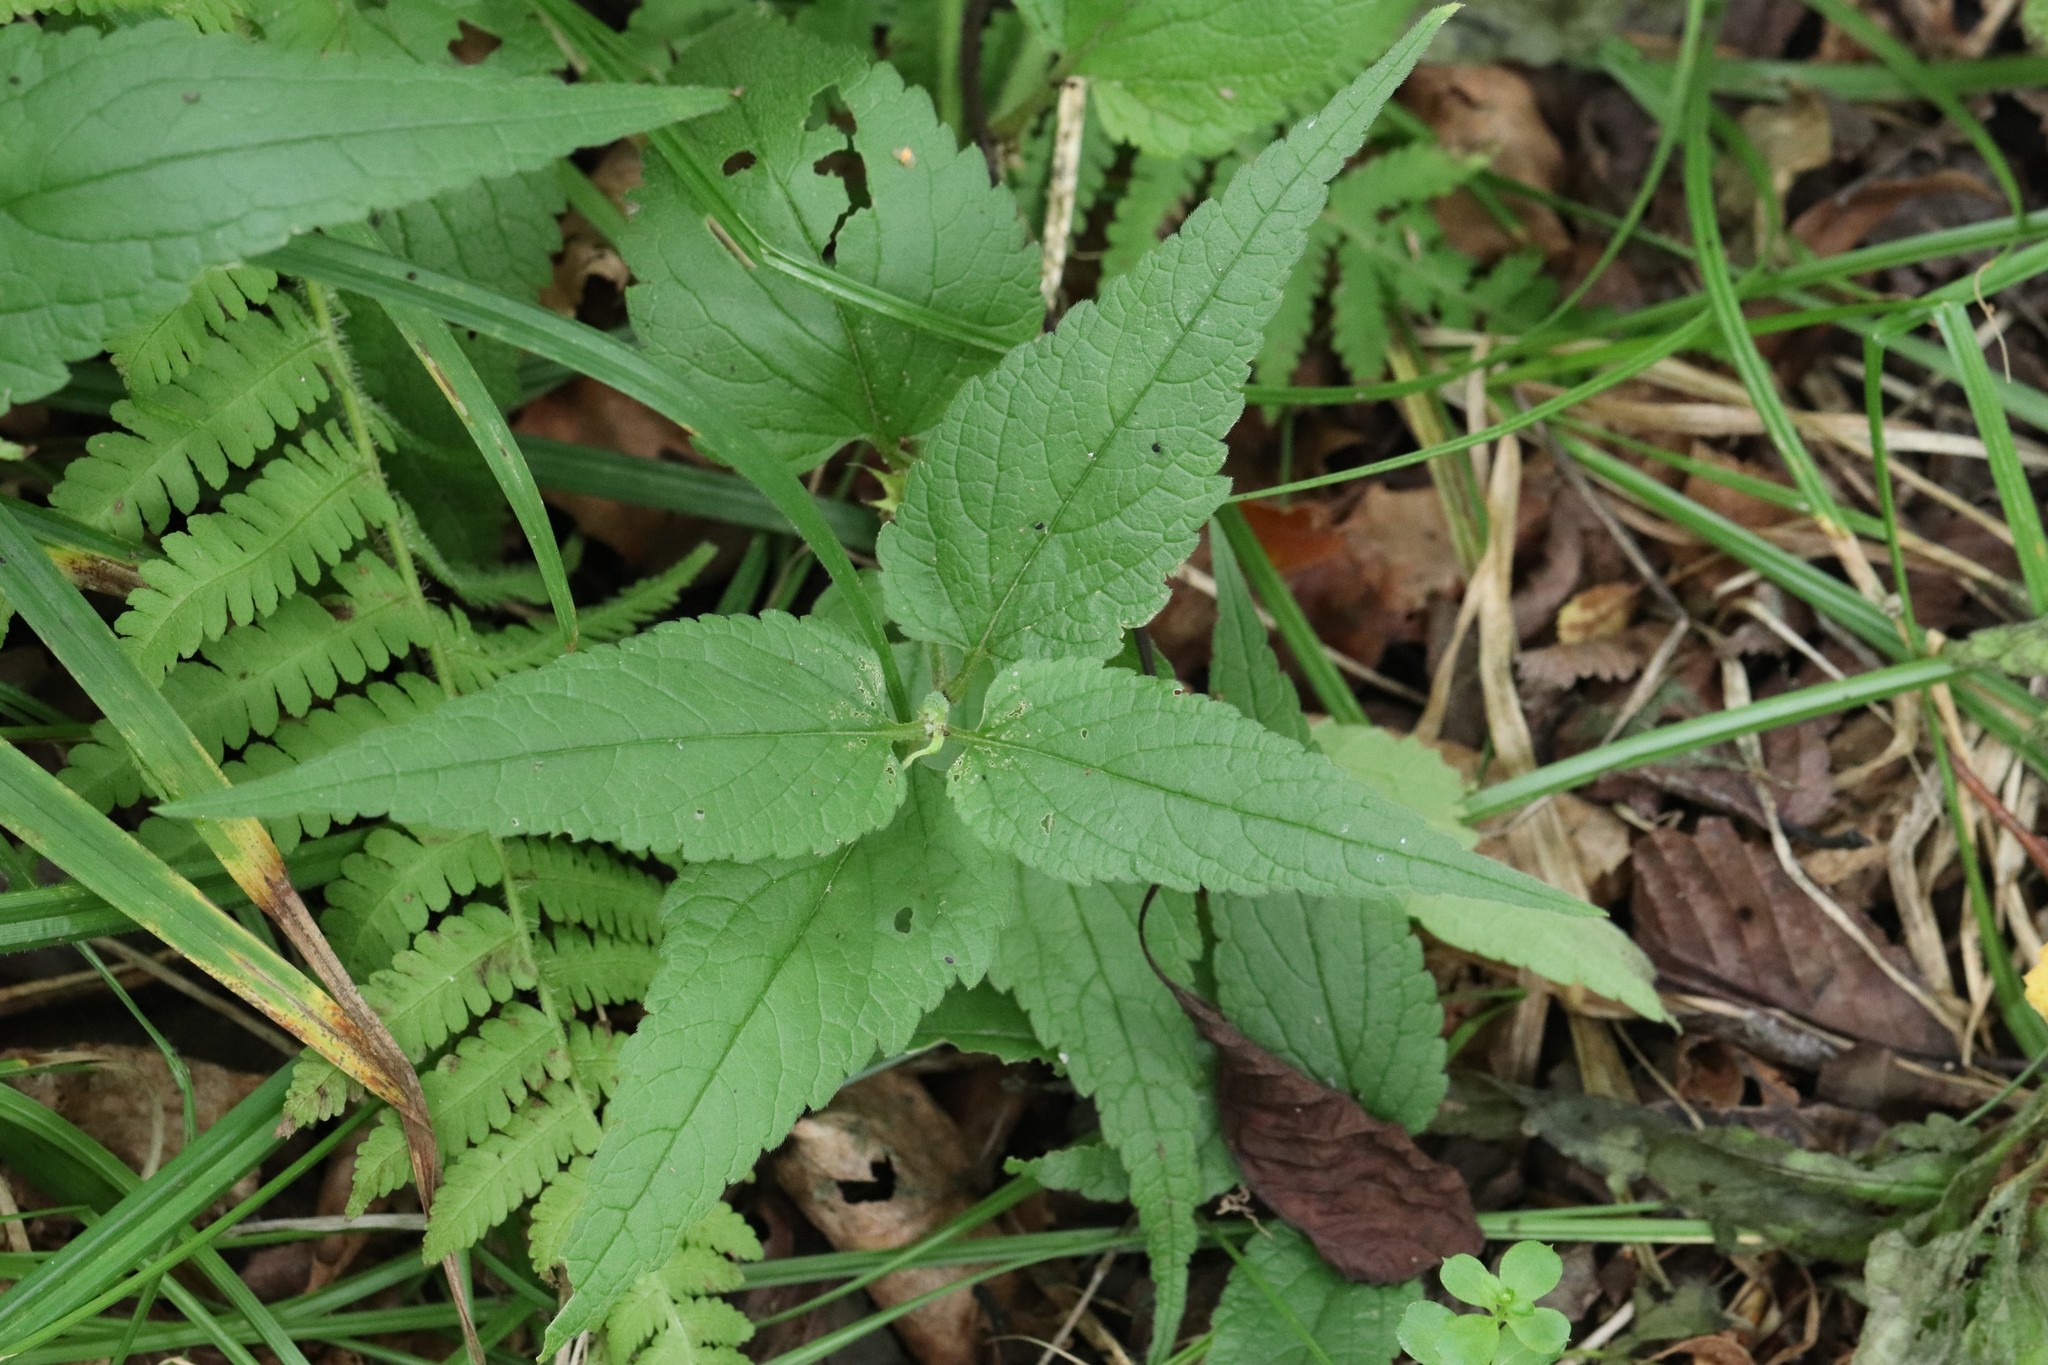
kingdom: Plantae
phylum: Tracheophyta
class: Magnoliopsida
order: Lamiales
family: Lamiaceae
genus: Lamium
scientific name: Lamium album
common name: White dead-nettle
